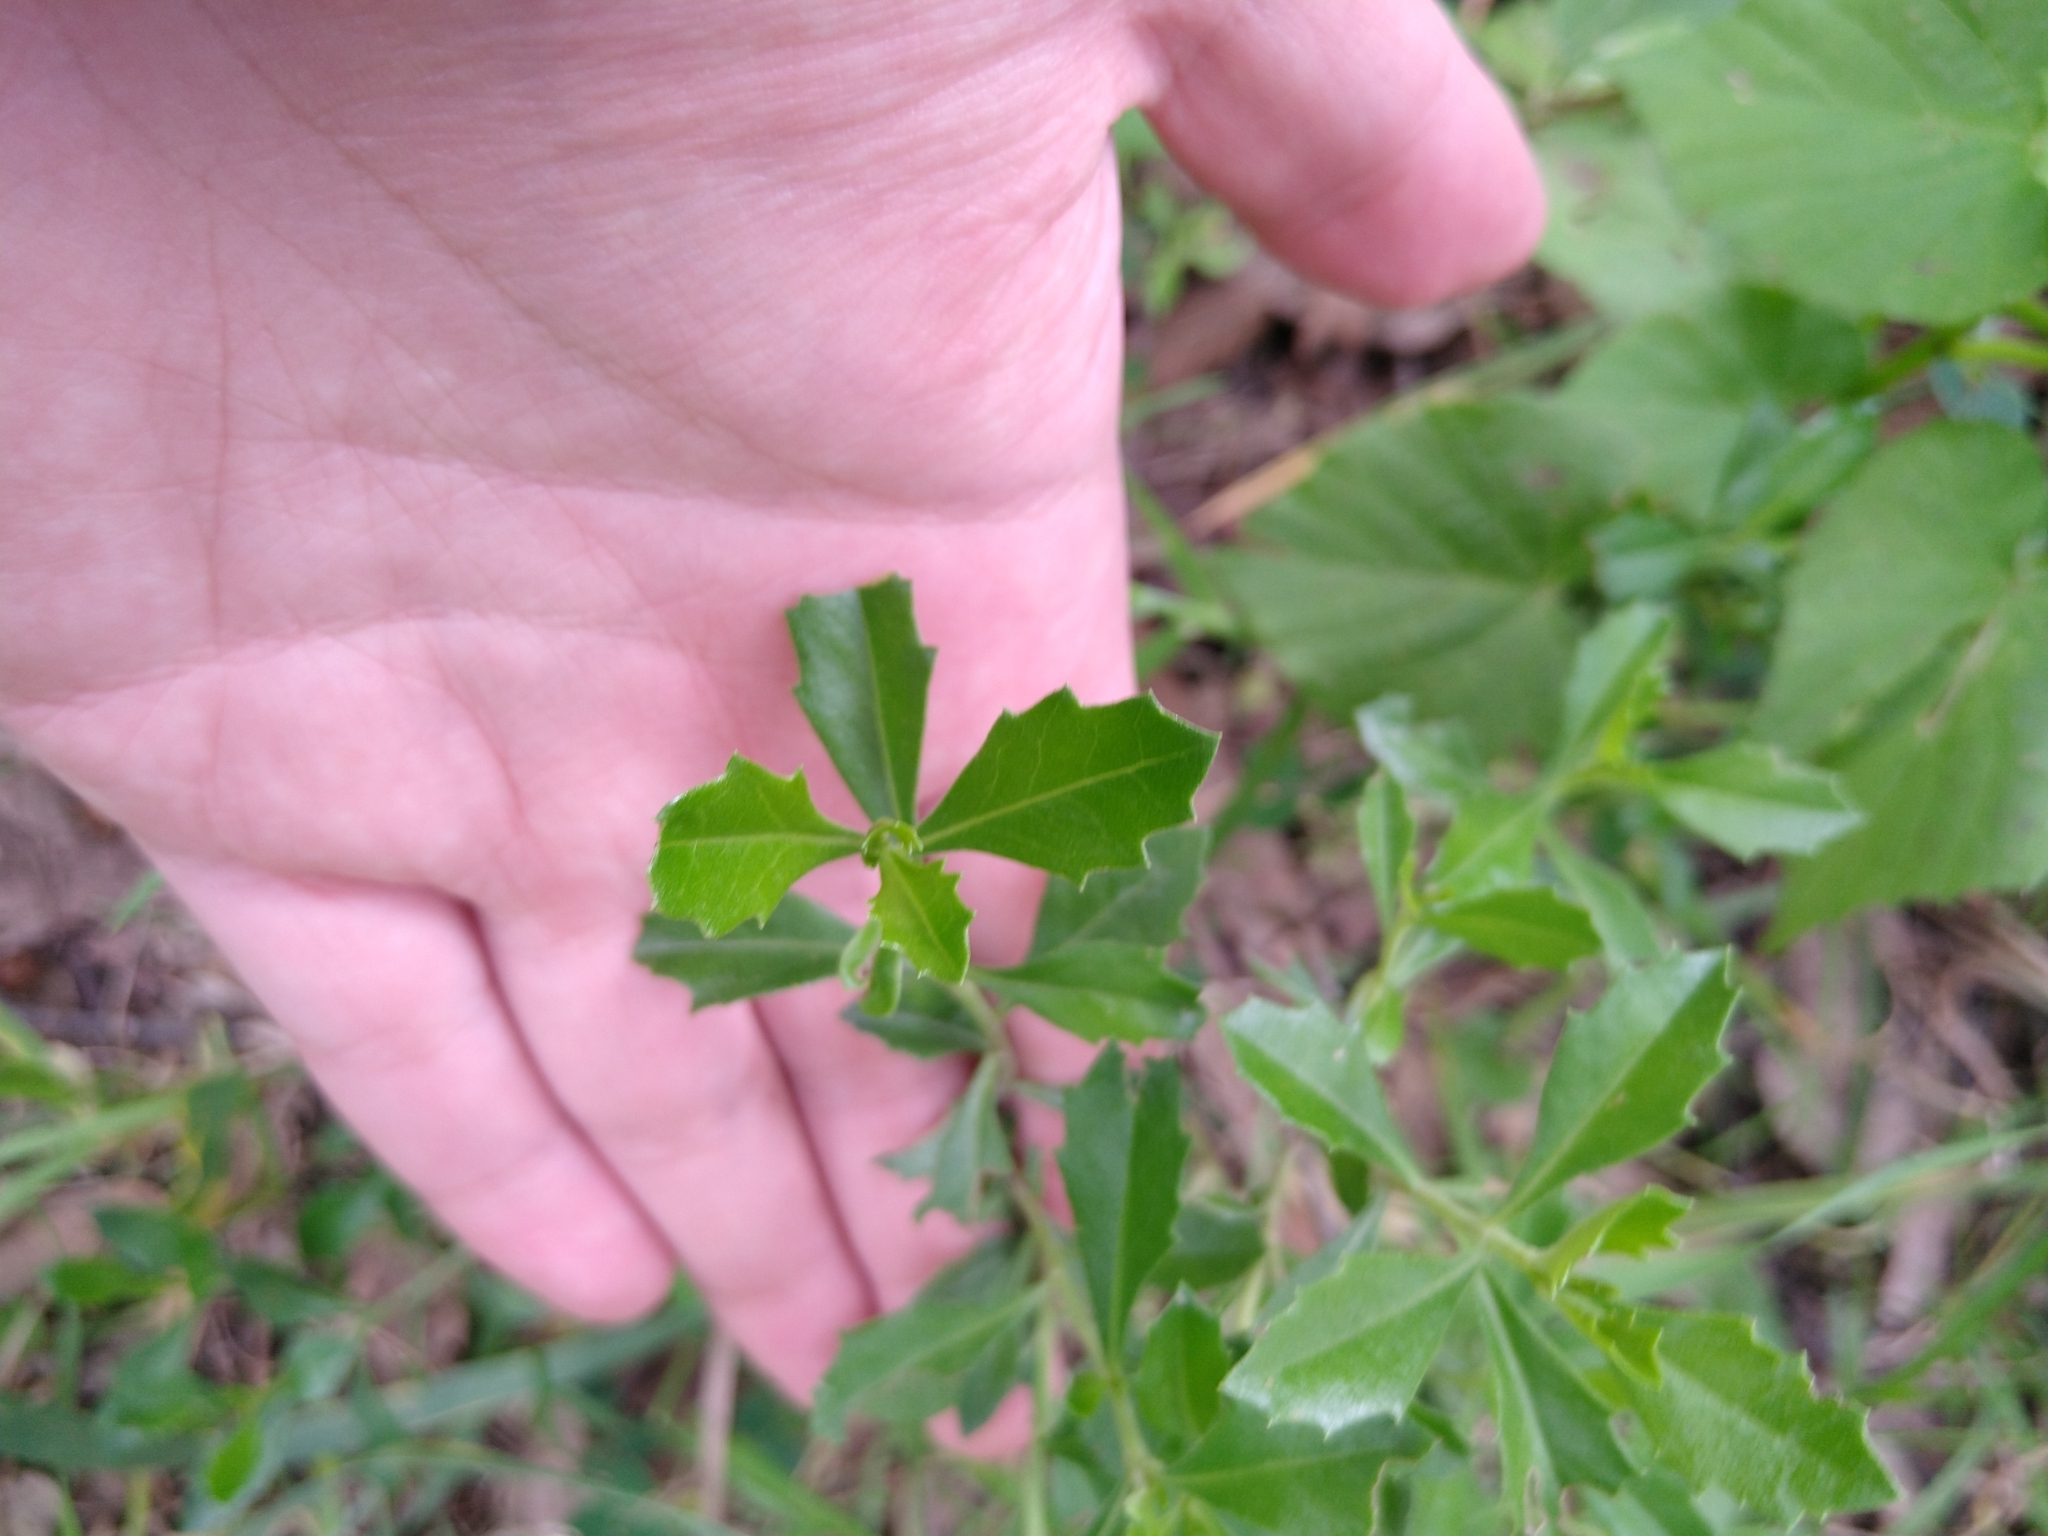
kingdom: Plantae
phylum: Tracheophyta
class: Magnoliopsida
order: Asterales
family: Asteraceae
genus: Baccharis
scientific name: Baccharis conferta
